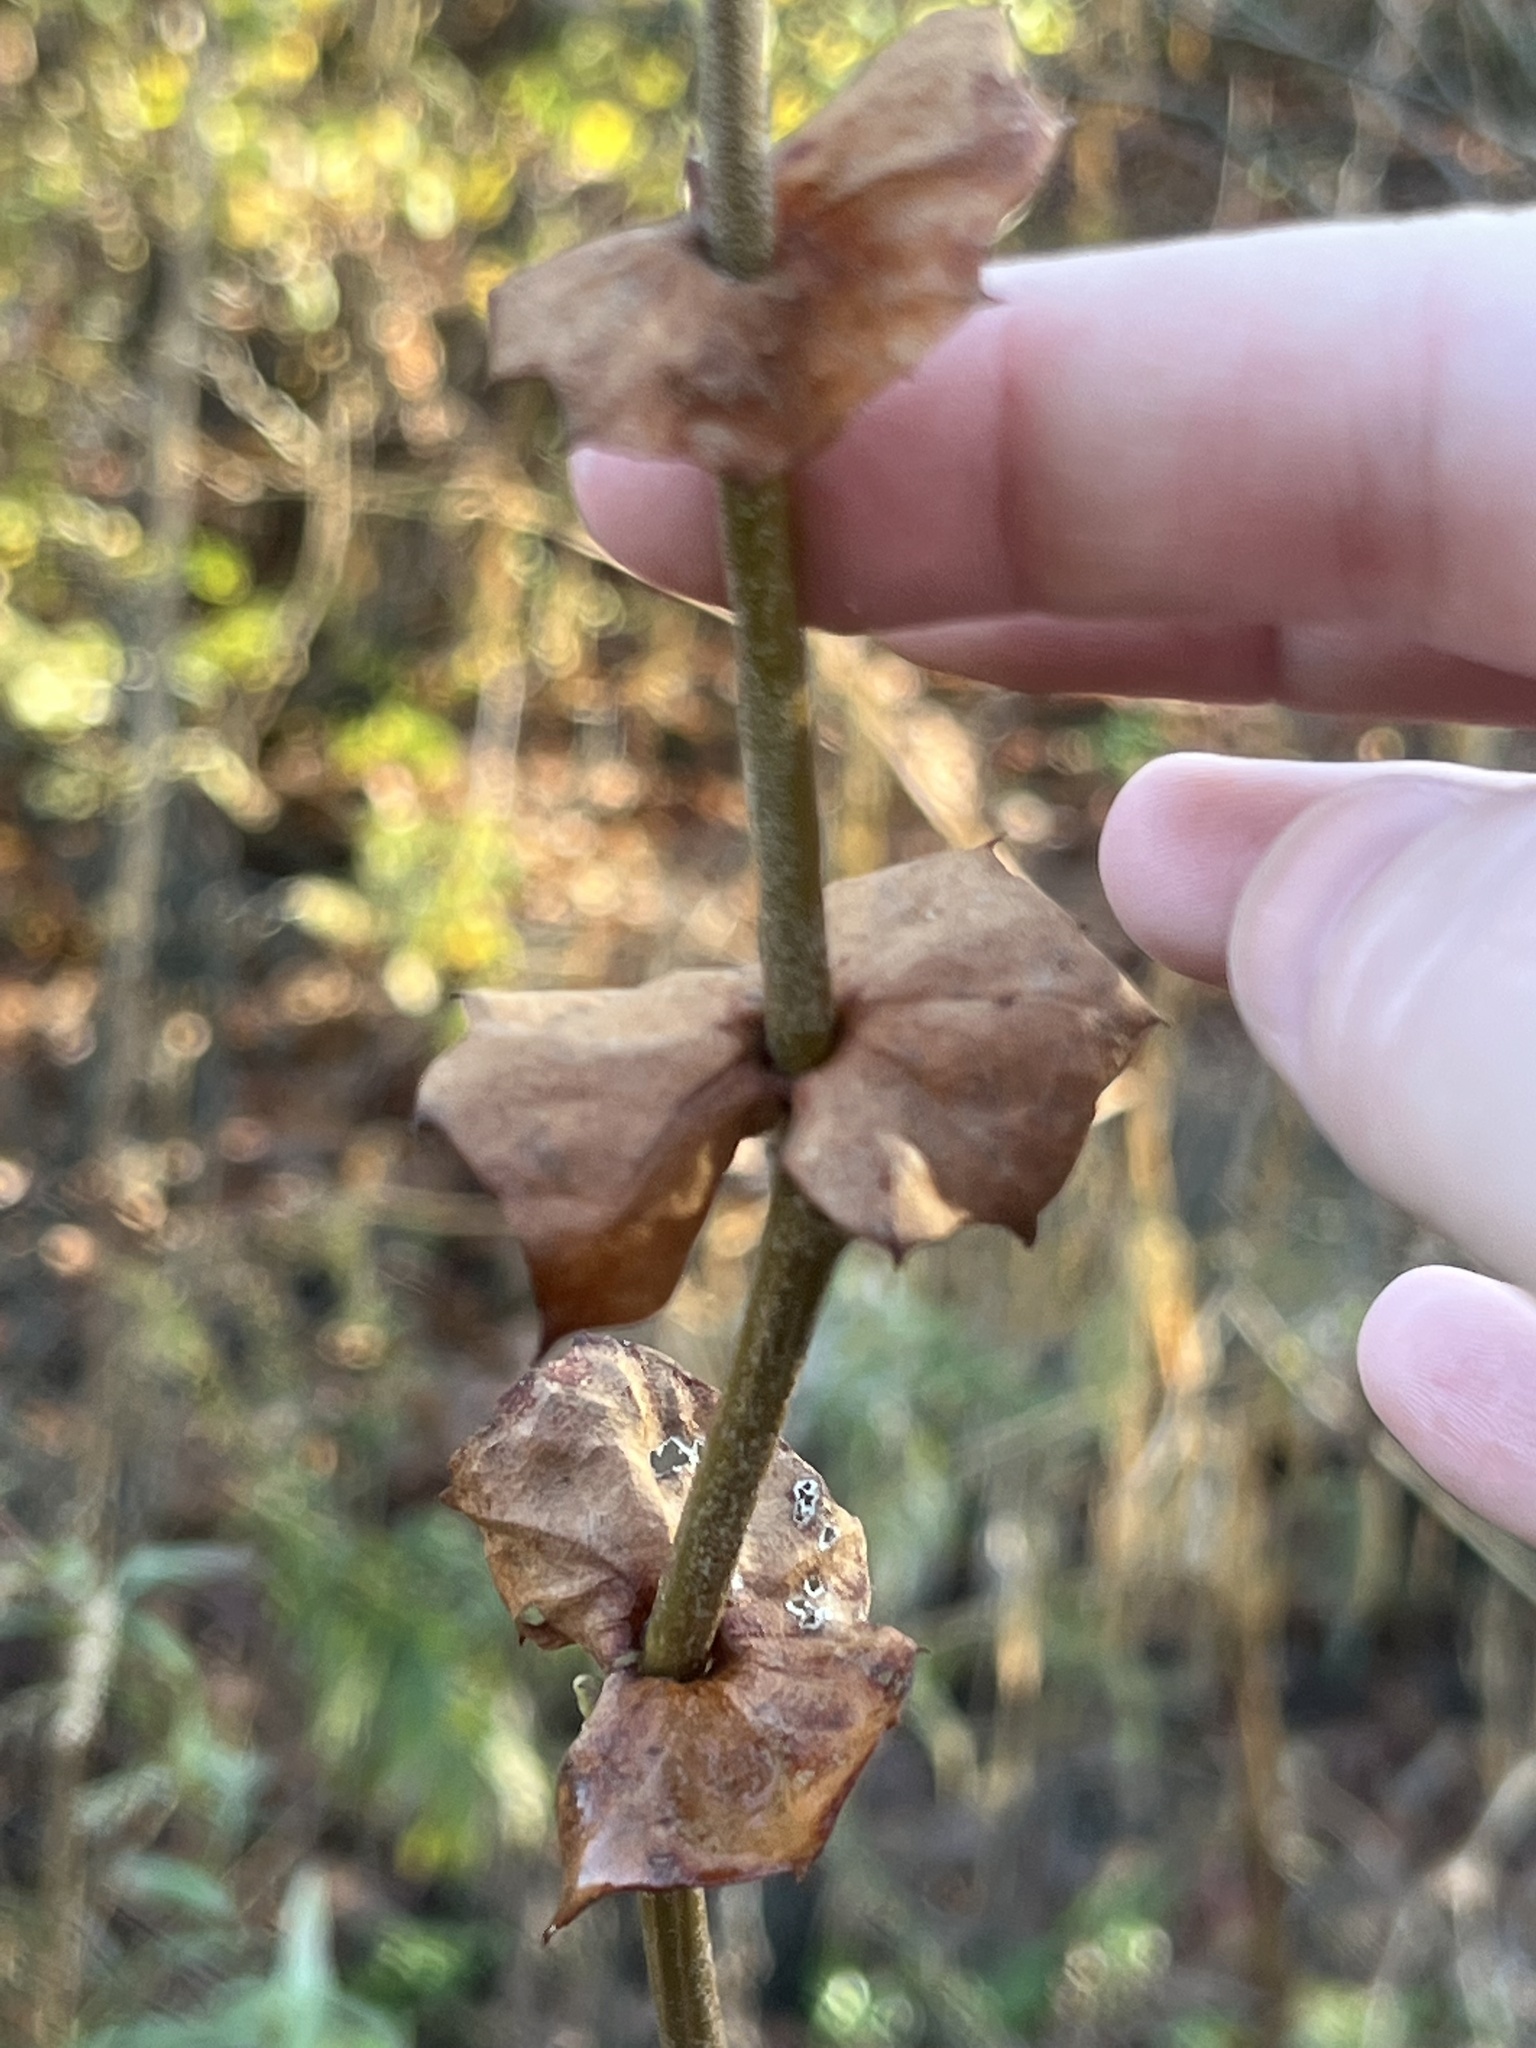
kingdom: Plantae
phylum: Tracheophyta
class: Magnoliopsida
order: Proteales
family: Platanaceae
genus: Platanus
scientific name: Platanus occidentalis
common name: American sycamore
